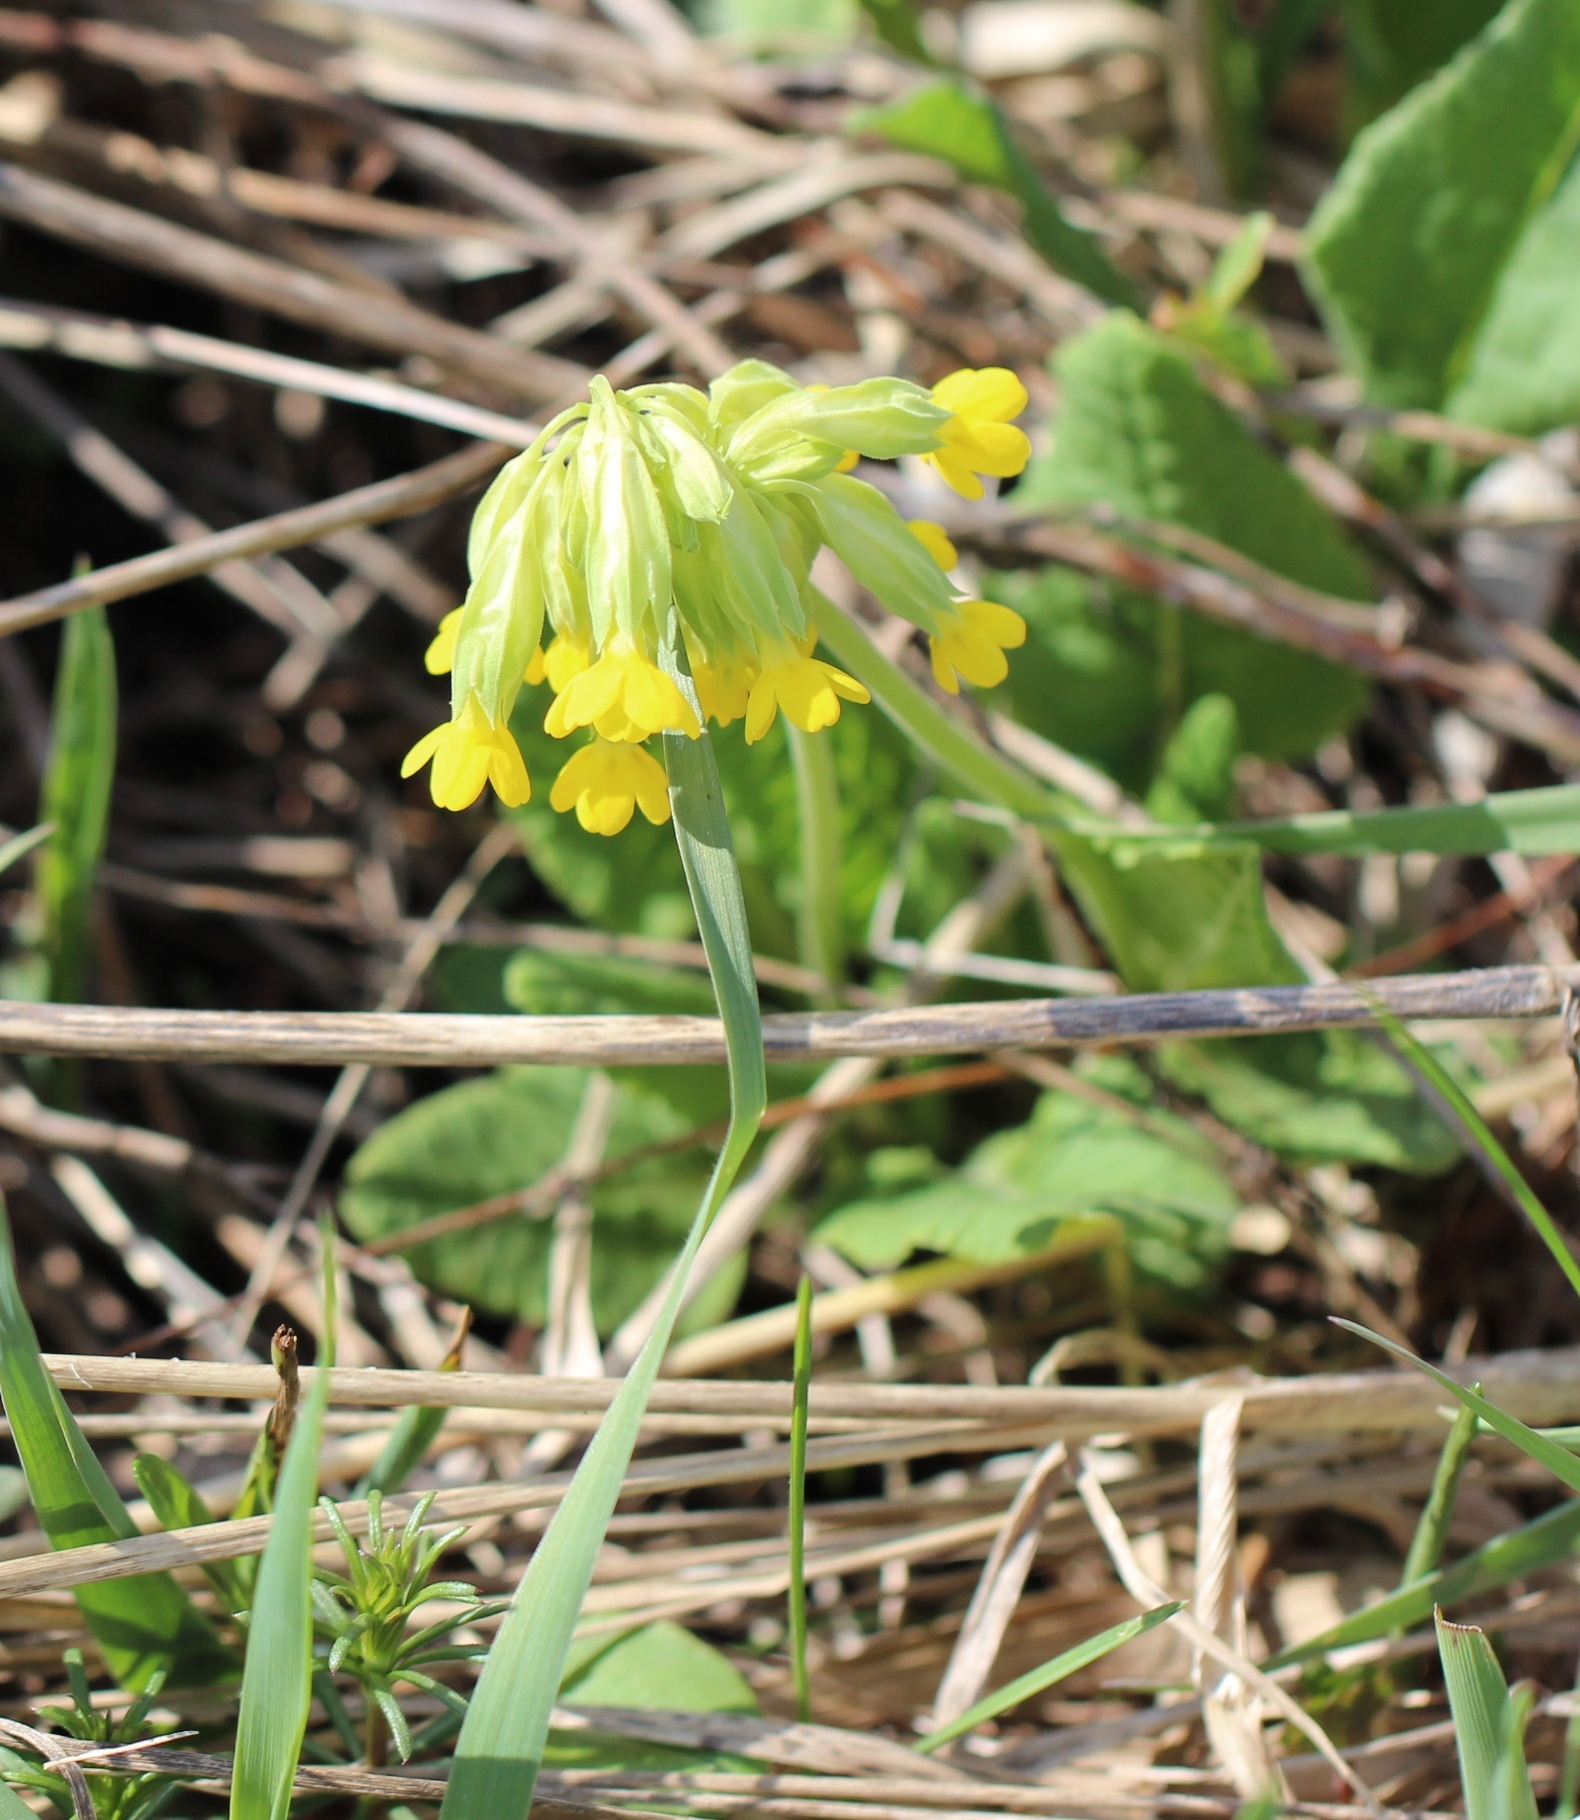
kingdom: Plantae
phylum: Tracheophyta
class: Magnoliopsida
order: Ericales
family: Primulaceae
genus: Primula
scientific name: Primula veris
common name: Cowslip
